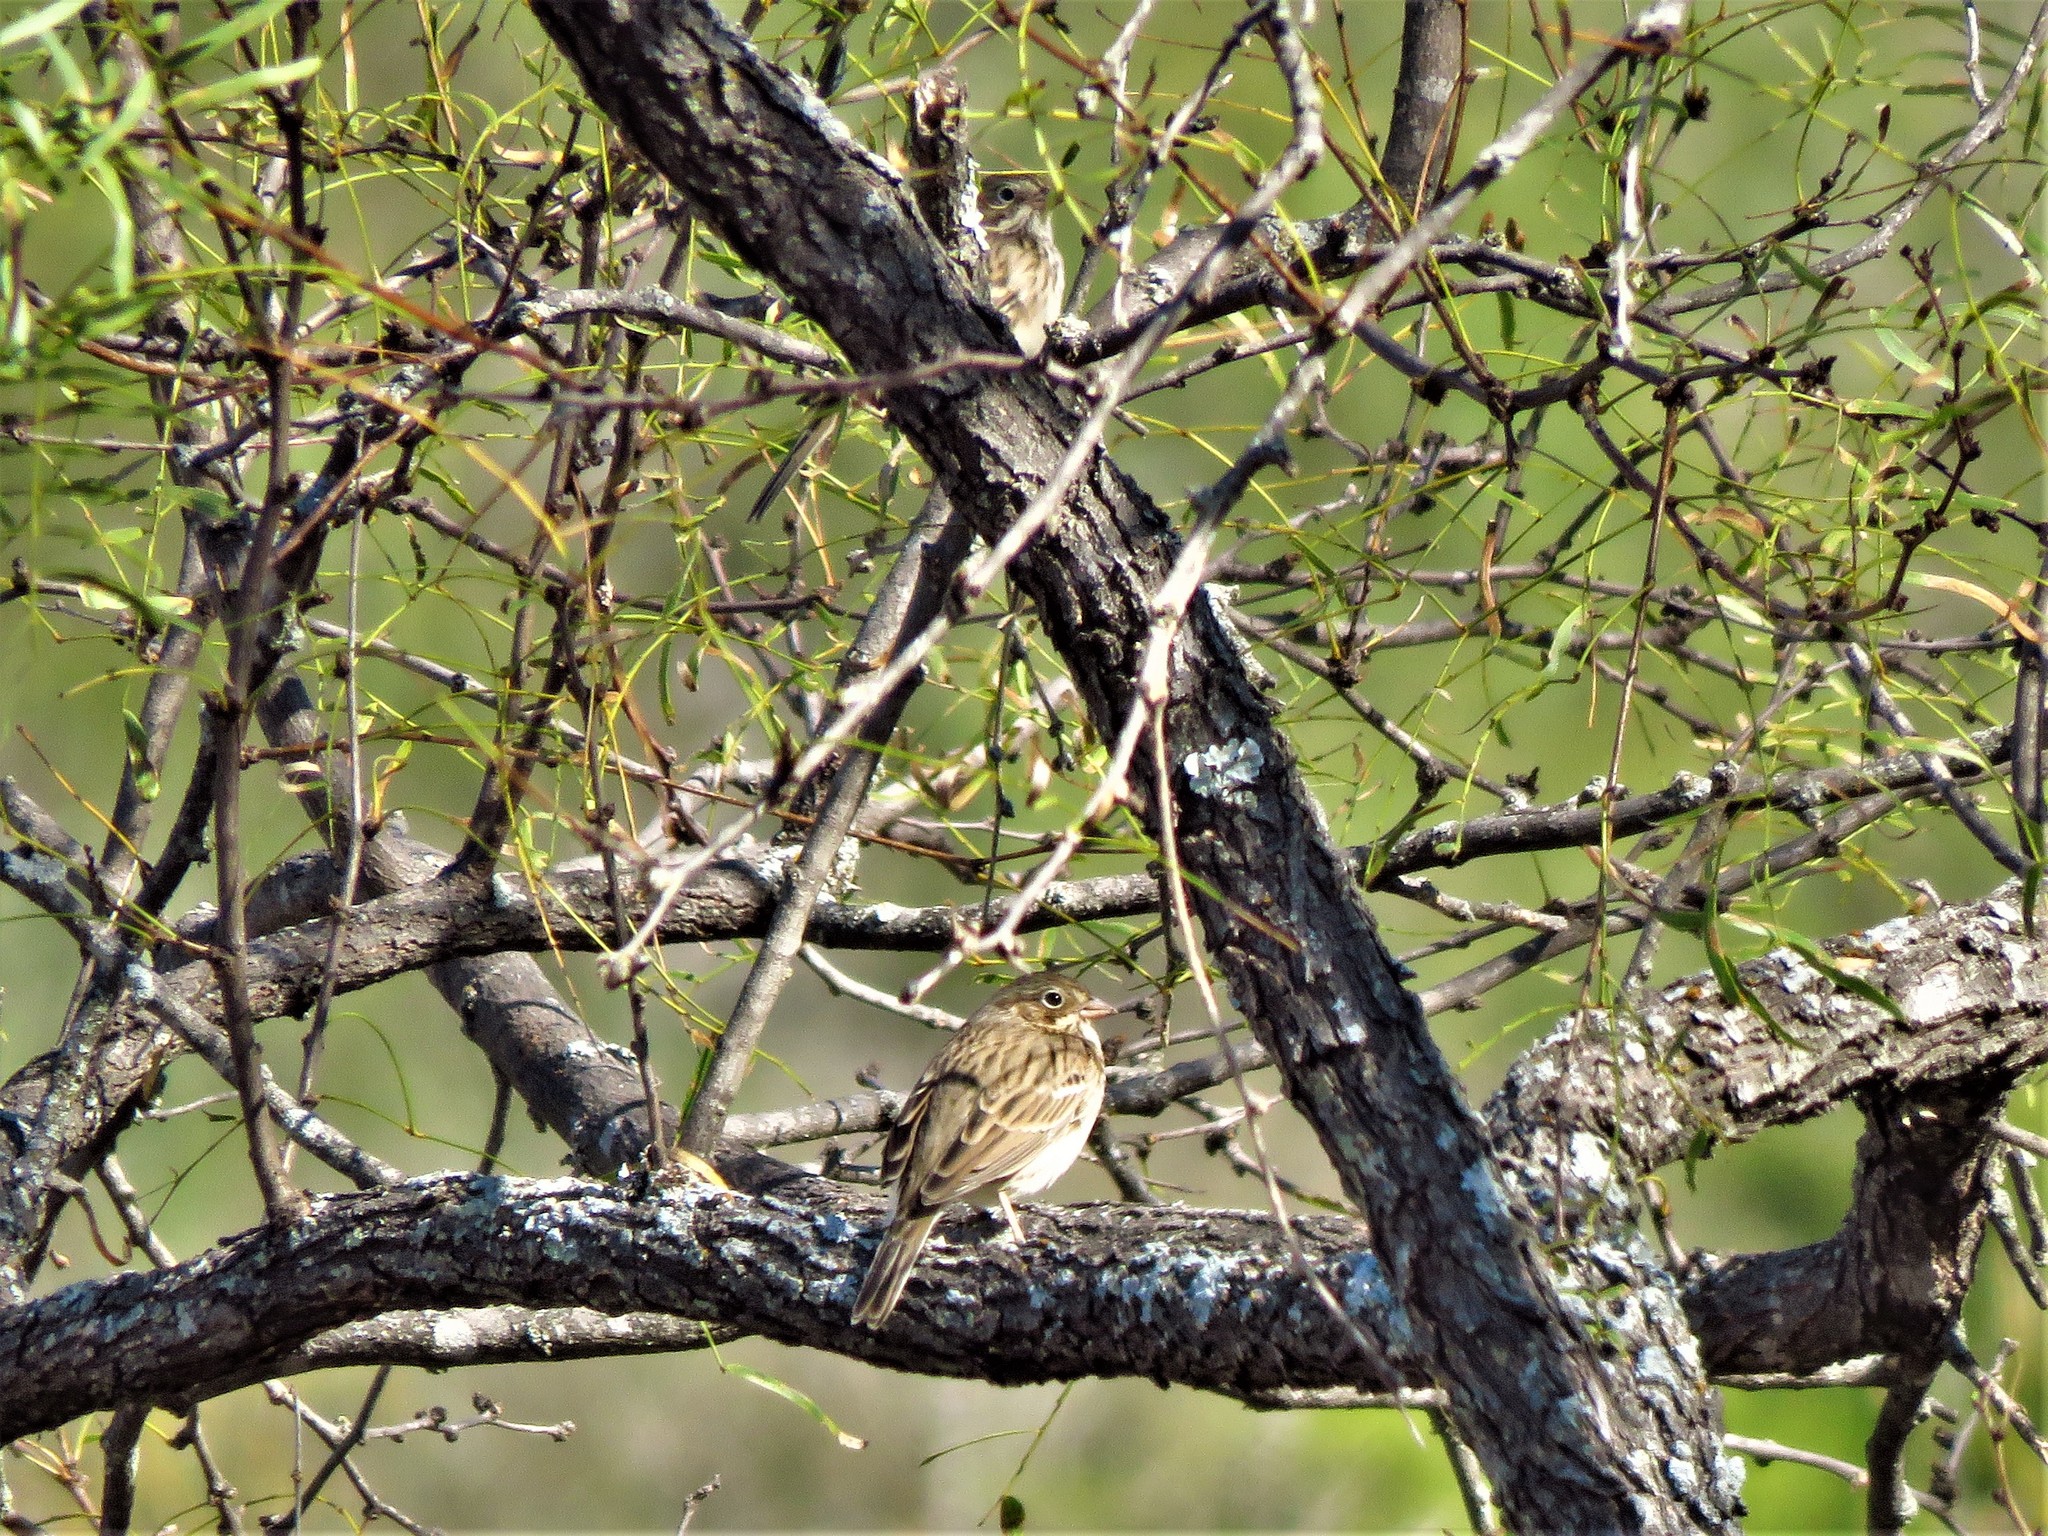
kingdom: Animalia
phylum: Chordata
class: Aves
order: Passeriformes
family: Passerellidae
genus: Pooecetes
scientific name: Pooecetes gramineus
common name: Vesper sparrow
